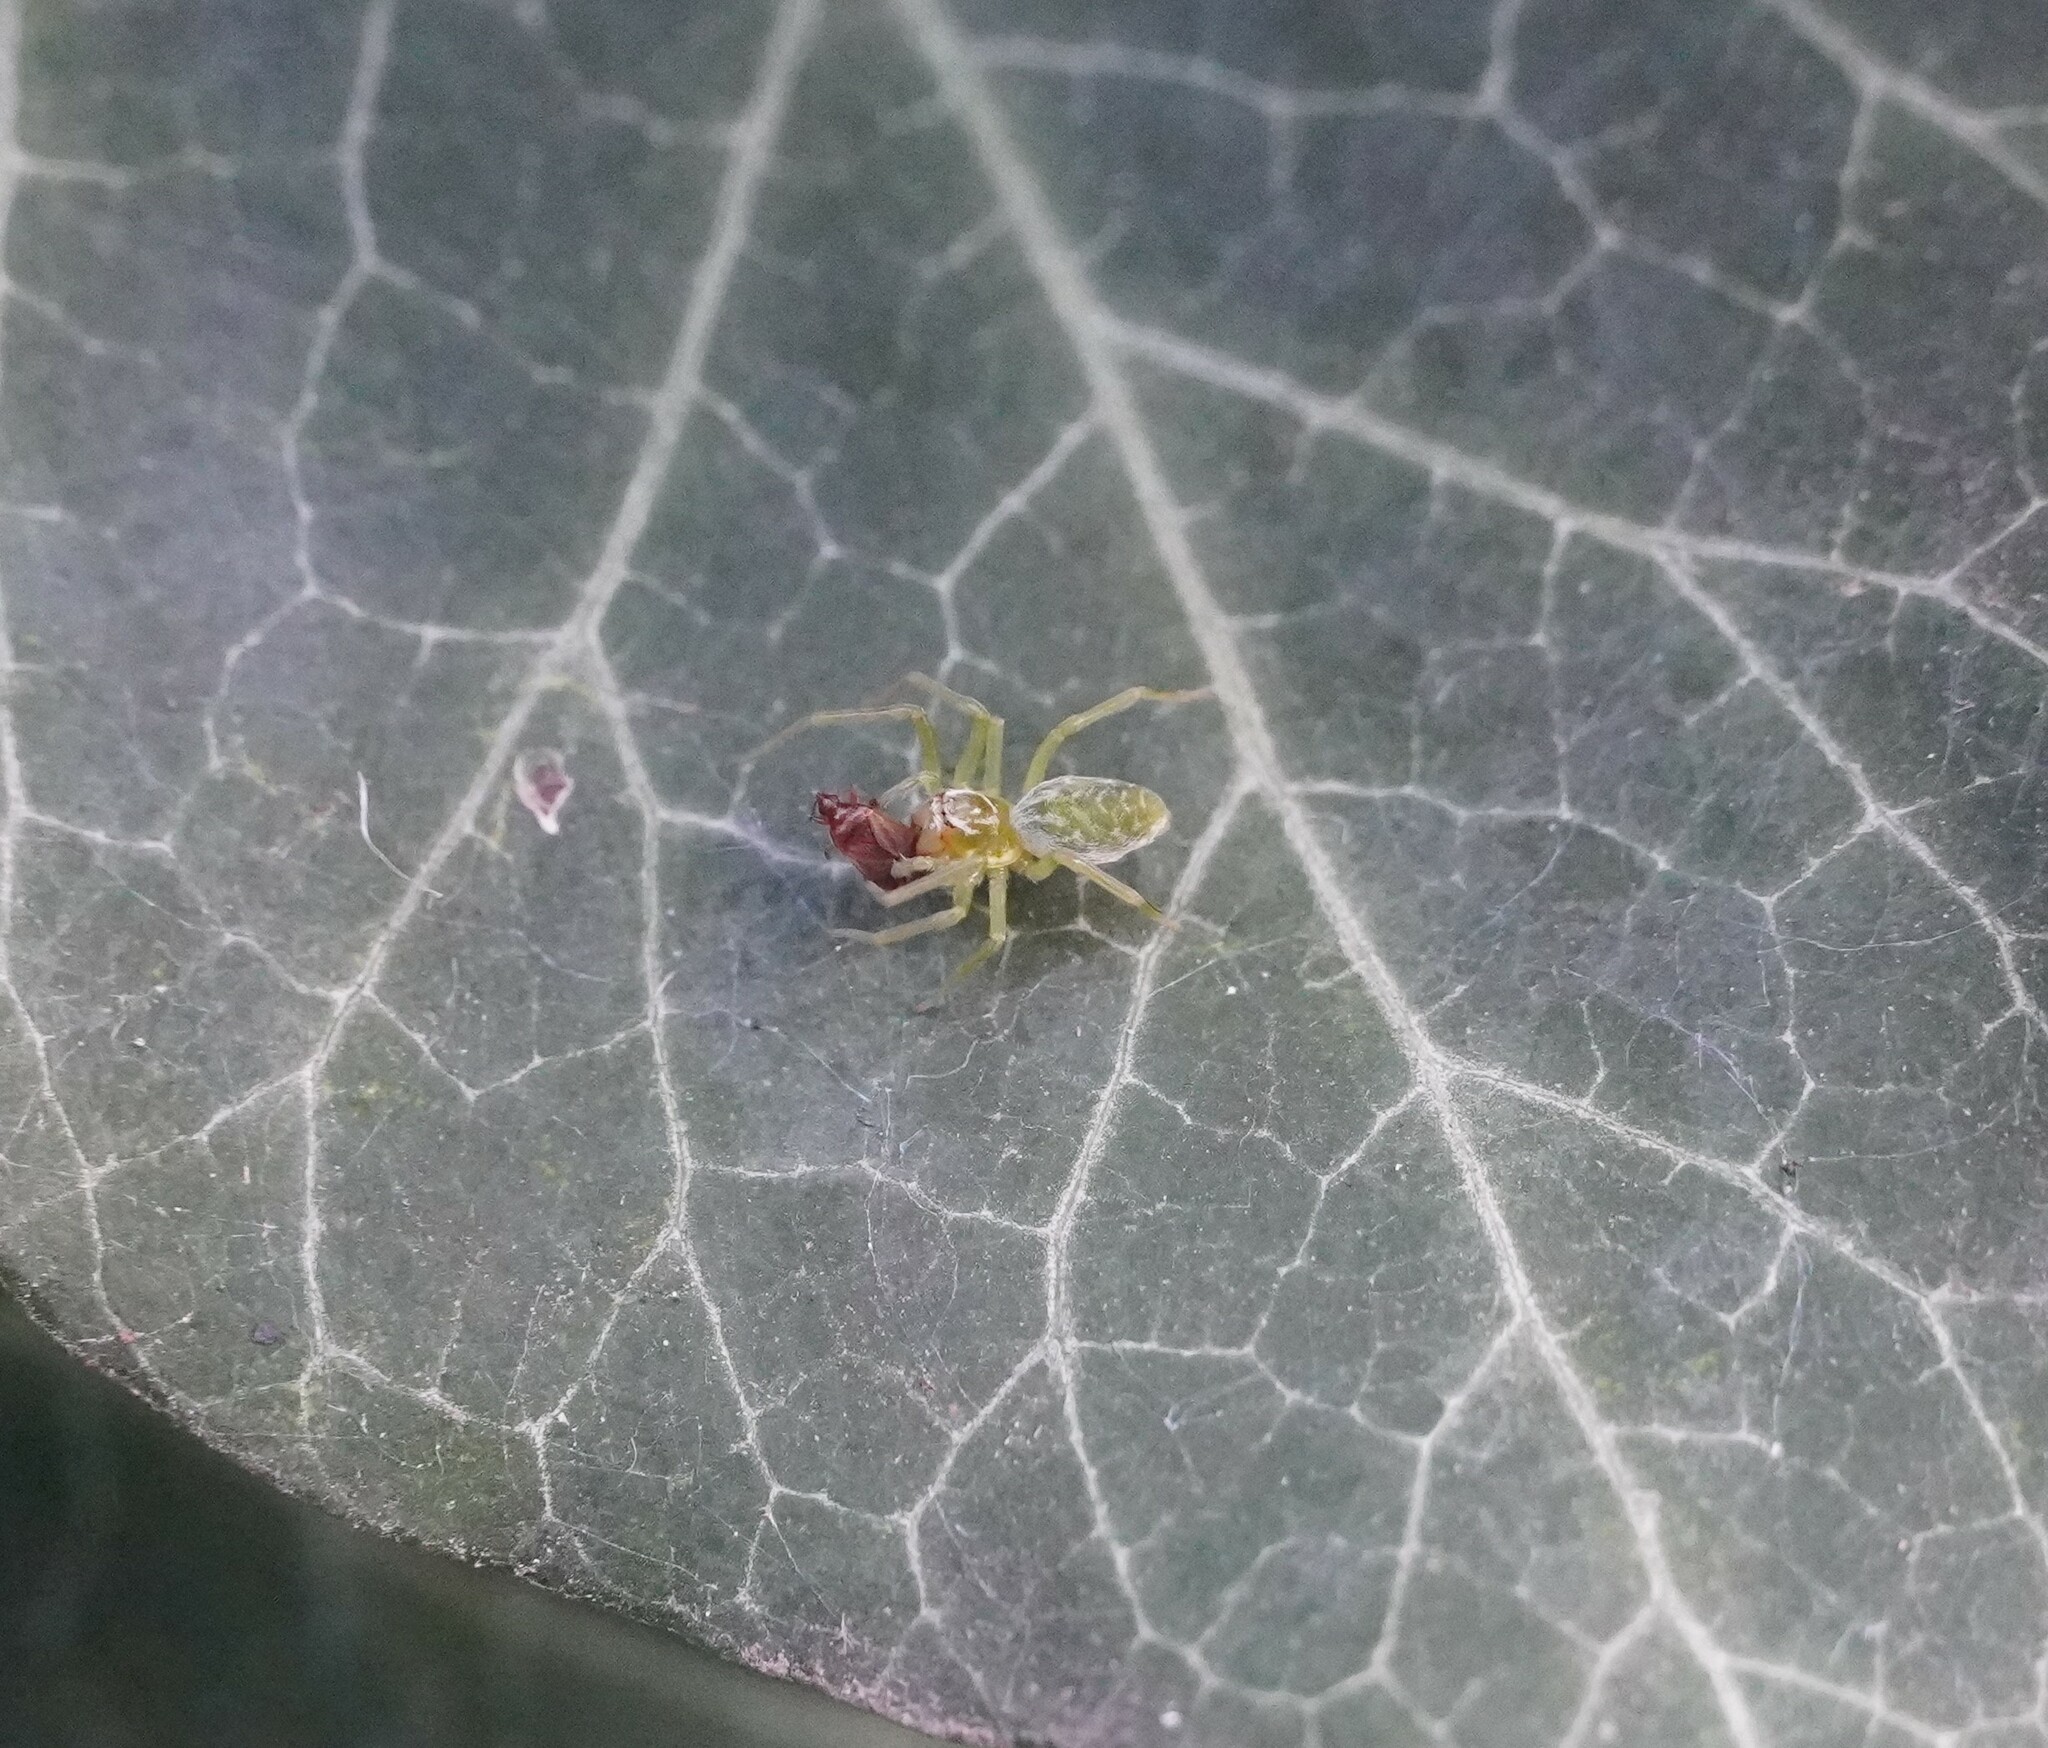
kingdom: Animalia
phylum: Arthropoda
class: Arachnida
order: Araneae
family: Dictynidae
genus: Nigma
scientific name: Nigma walckenaeri
